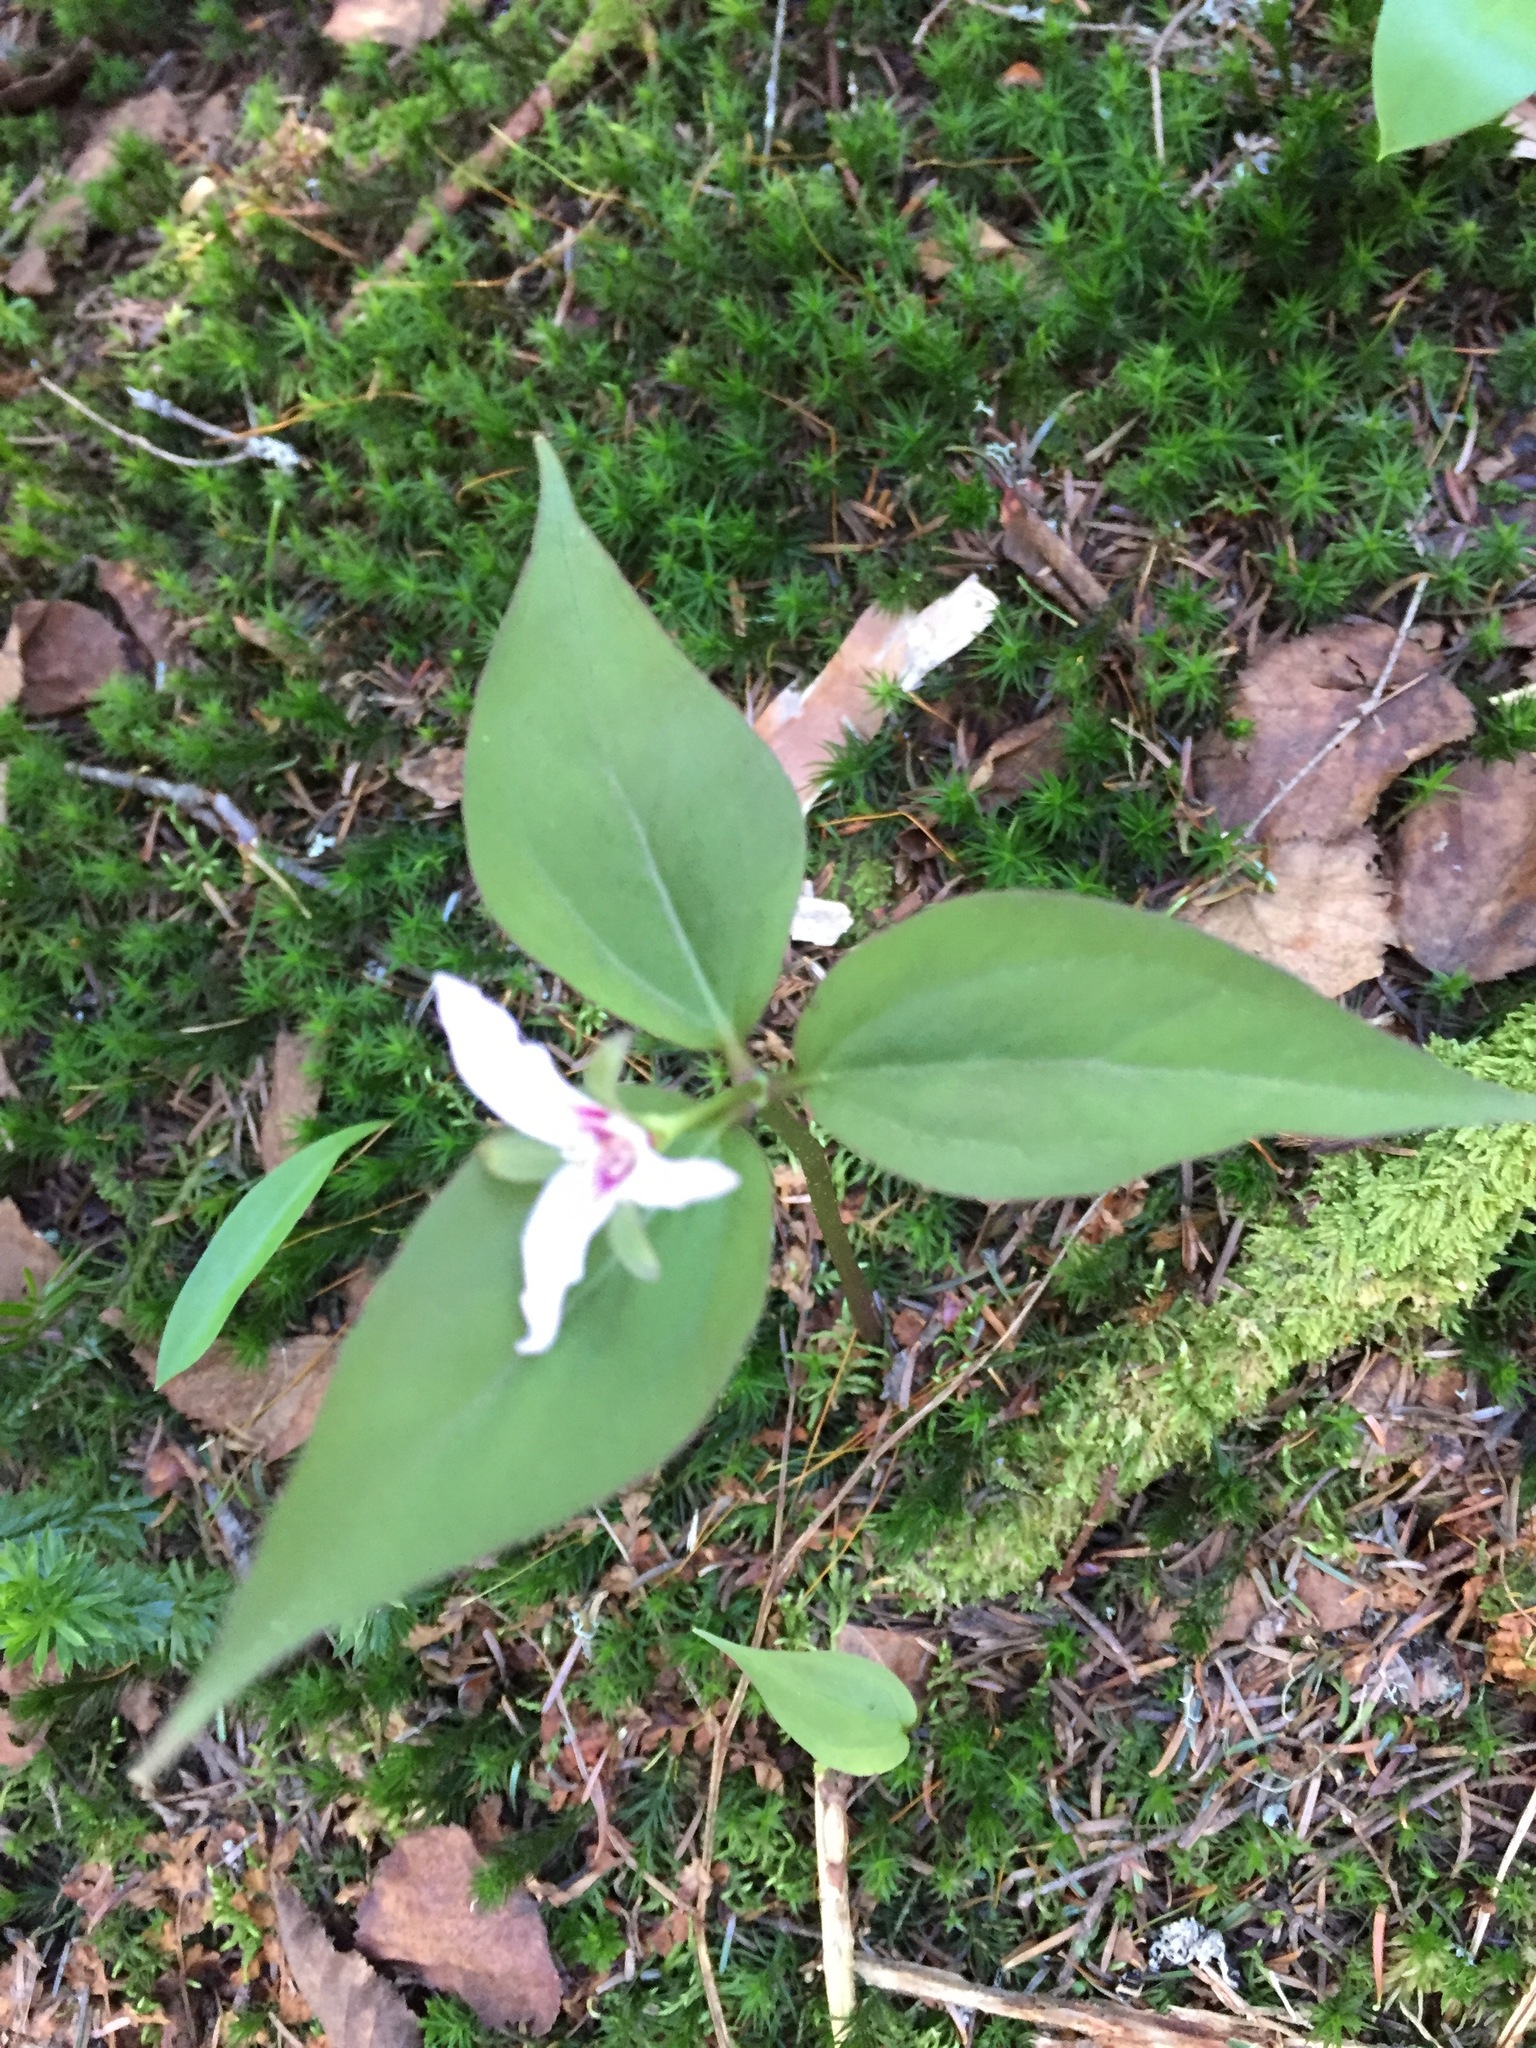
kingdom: Plantae
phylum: Tracheophyta
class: Liliopsida
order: Liliales
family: Melanthiaceae
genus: Trillium
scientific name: Trillium undulatum
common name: Paint trillium
